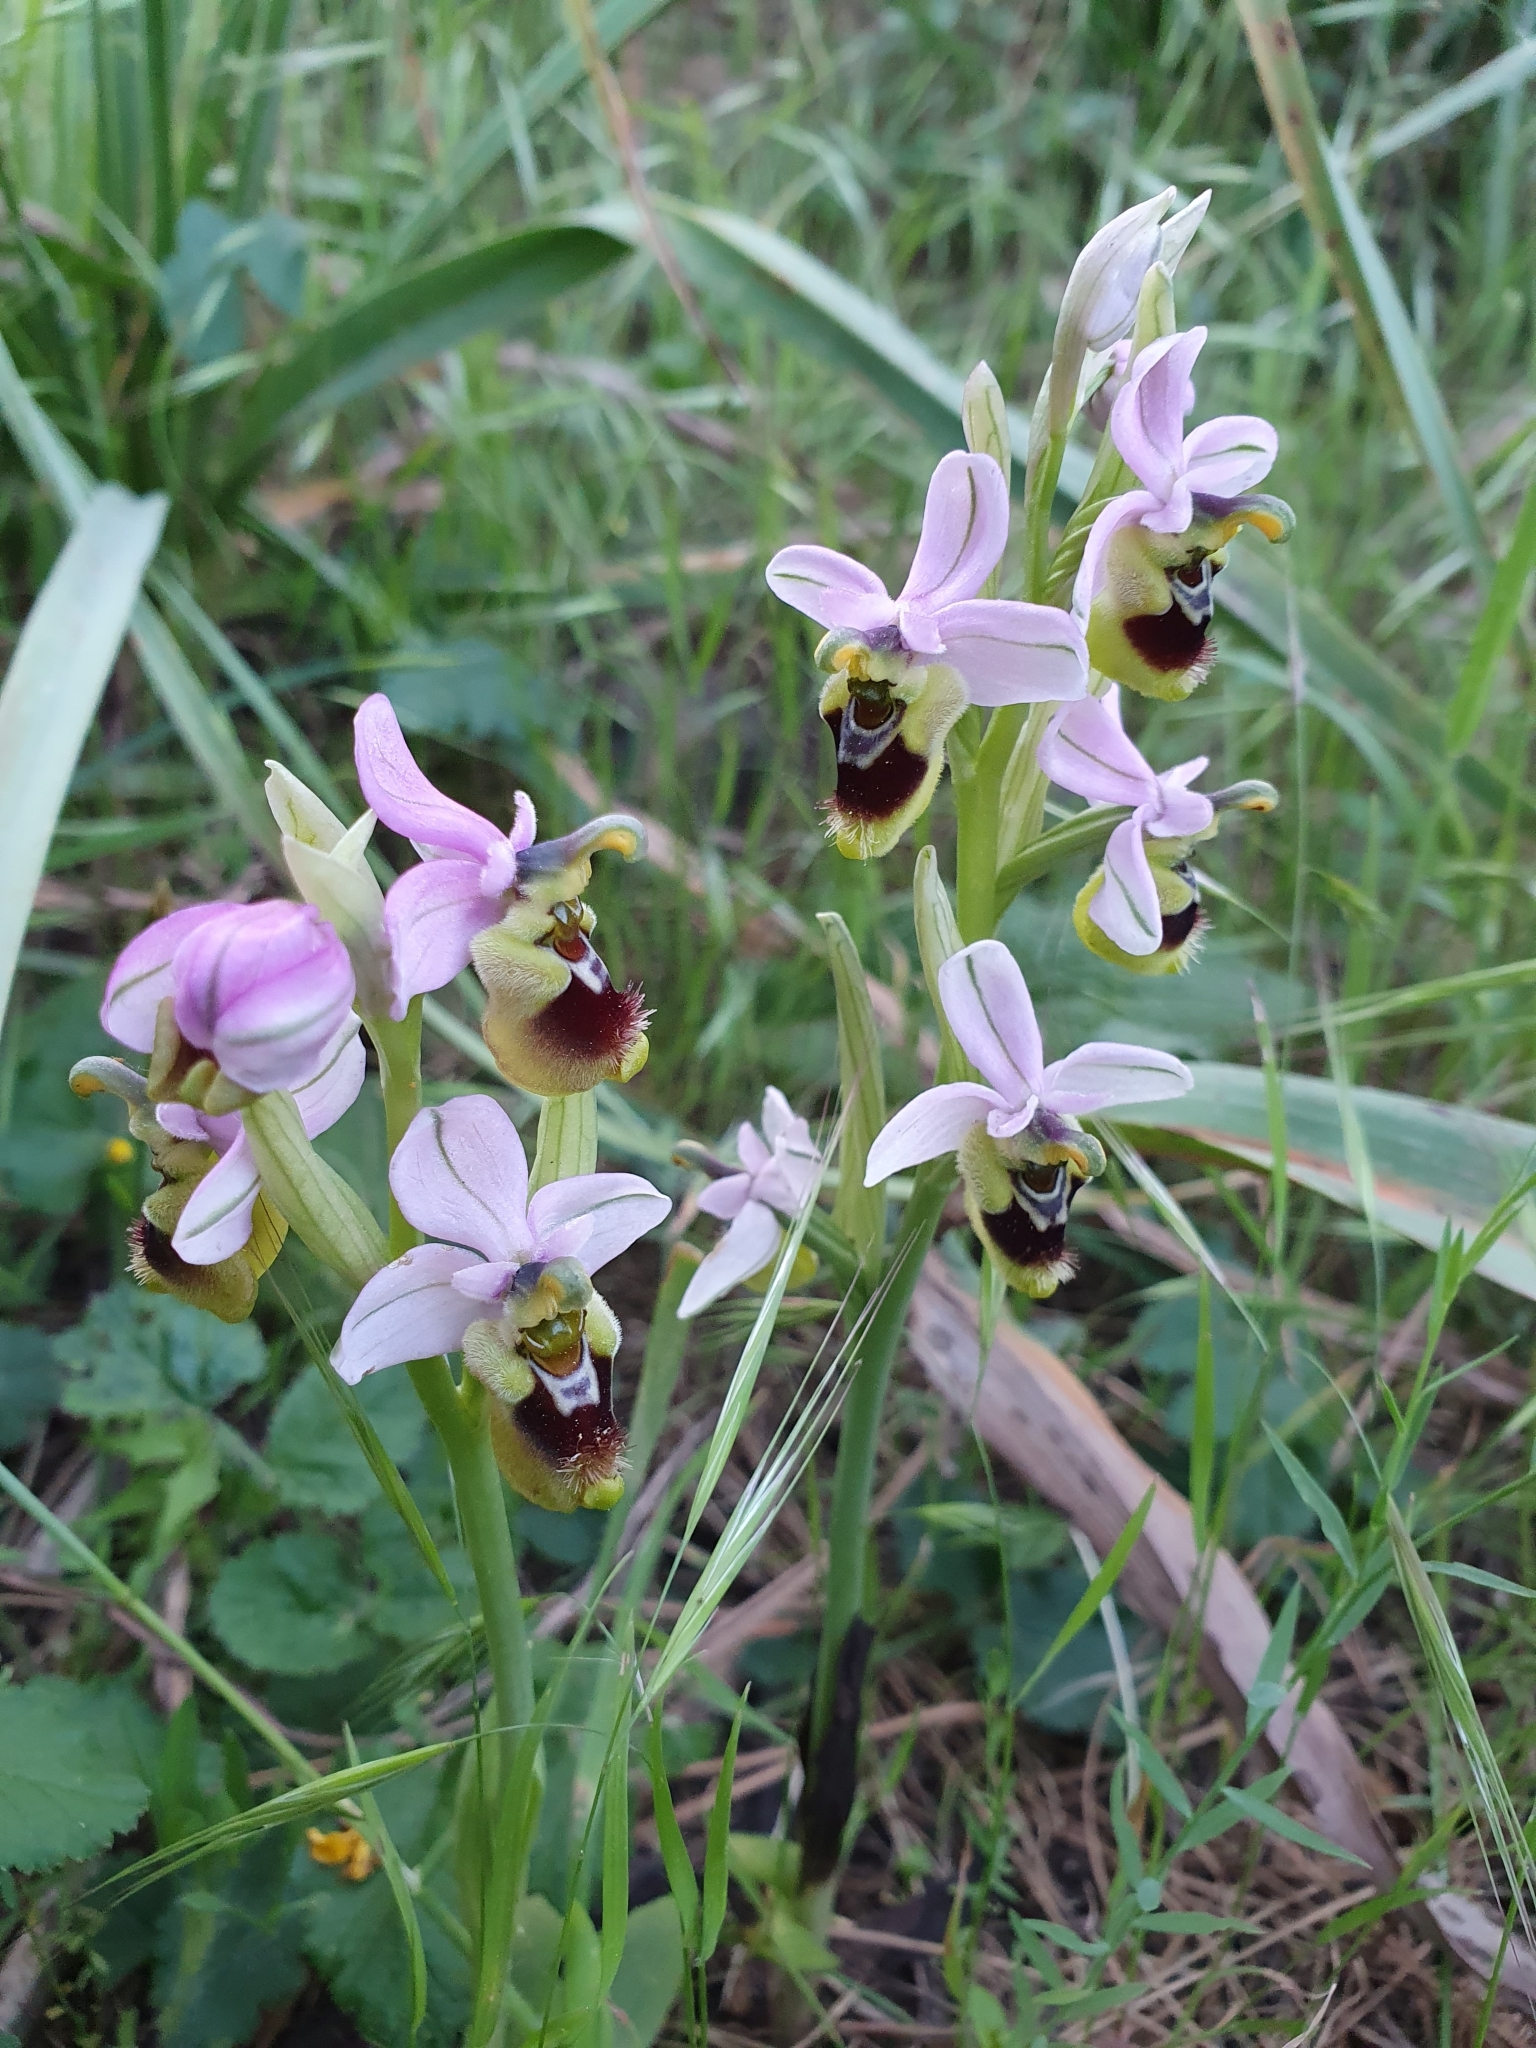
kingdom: Plantae
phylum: Tracheophyta
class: Liliopsida
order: Asparagales
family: Orchidaceae
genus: Ophrys
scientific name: Ophrys tenthredinifera
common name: Sawfly orchid
